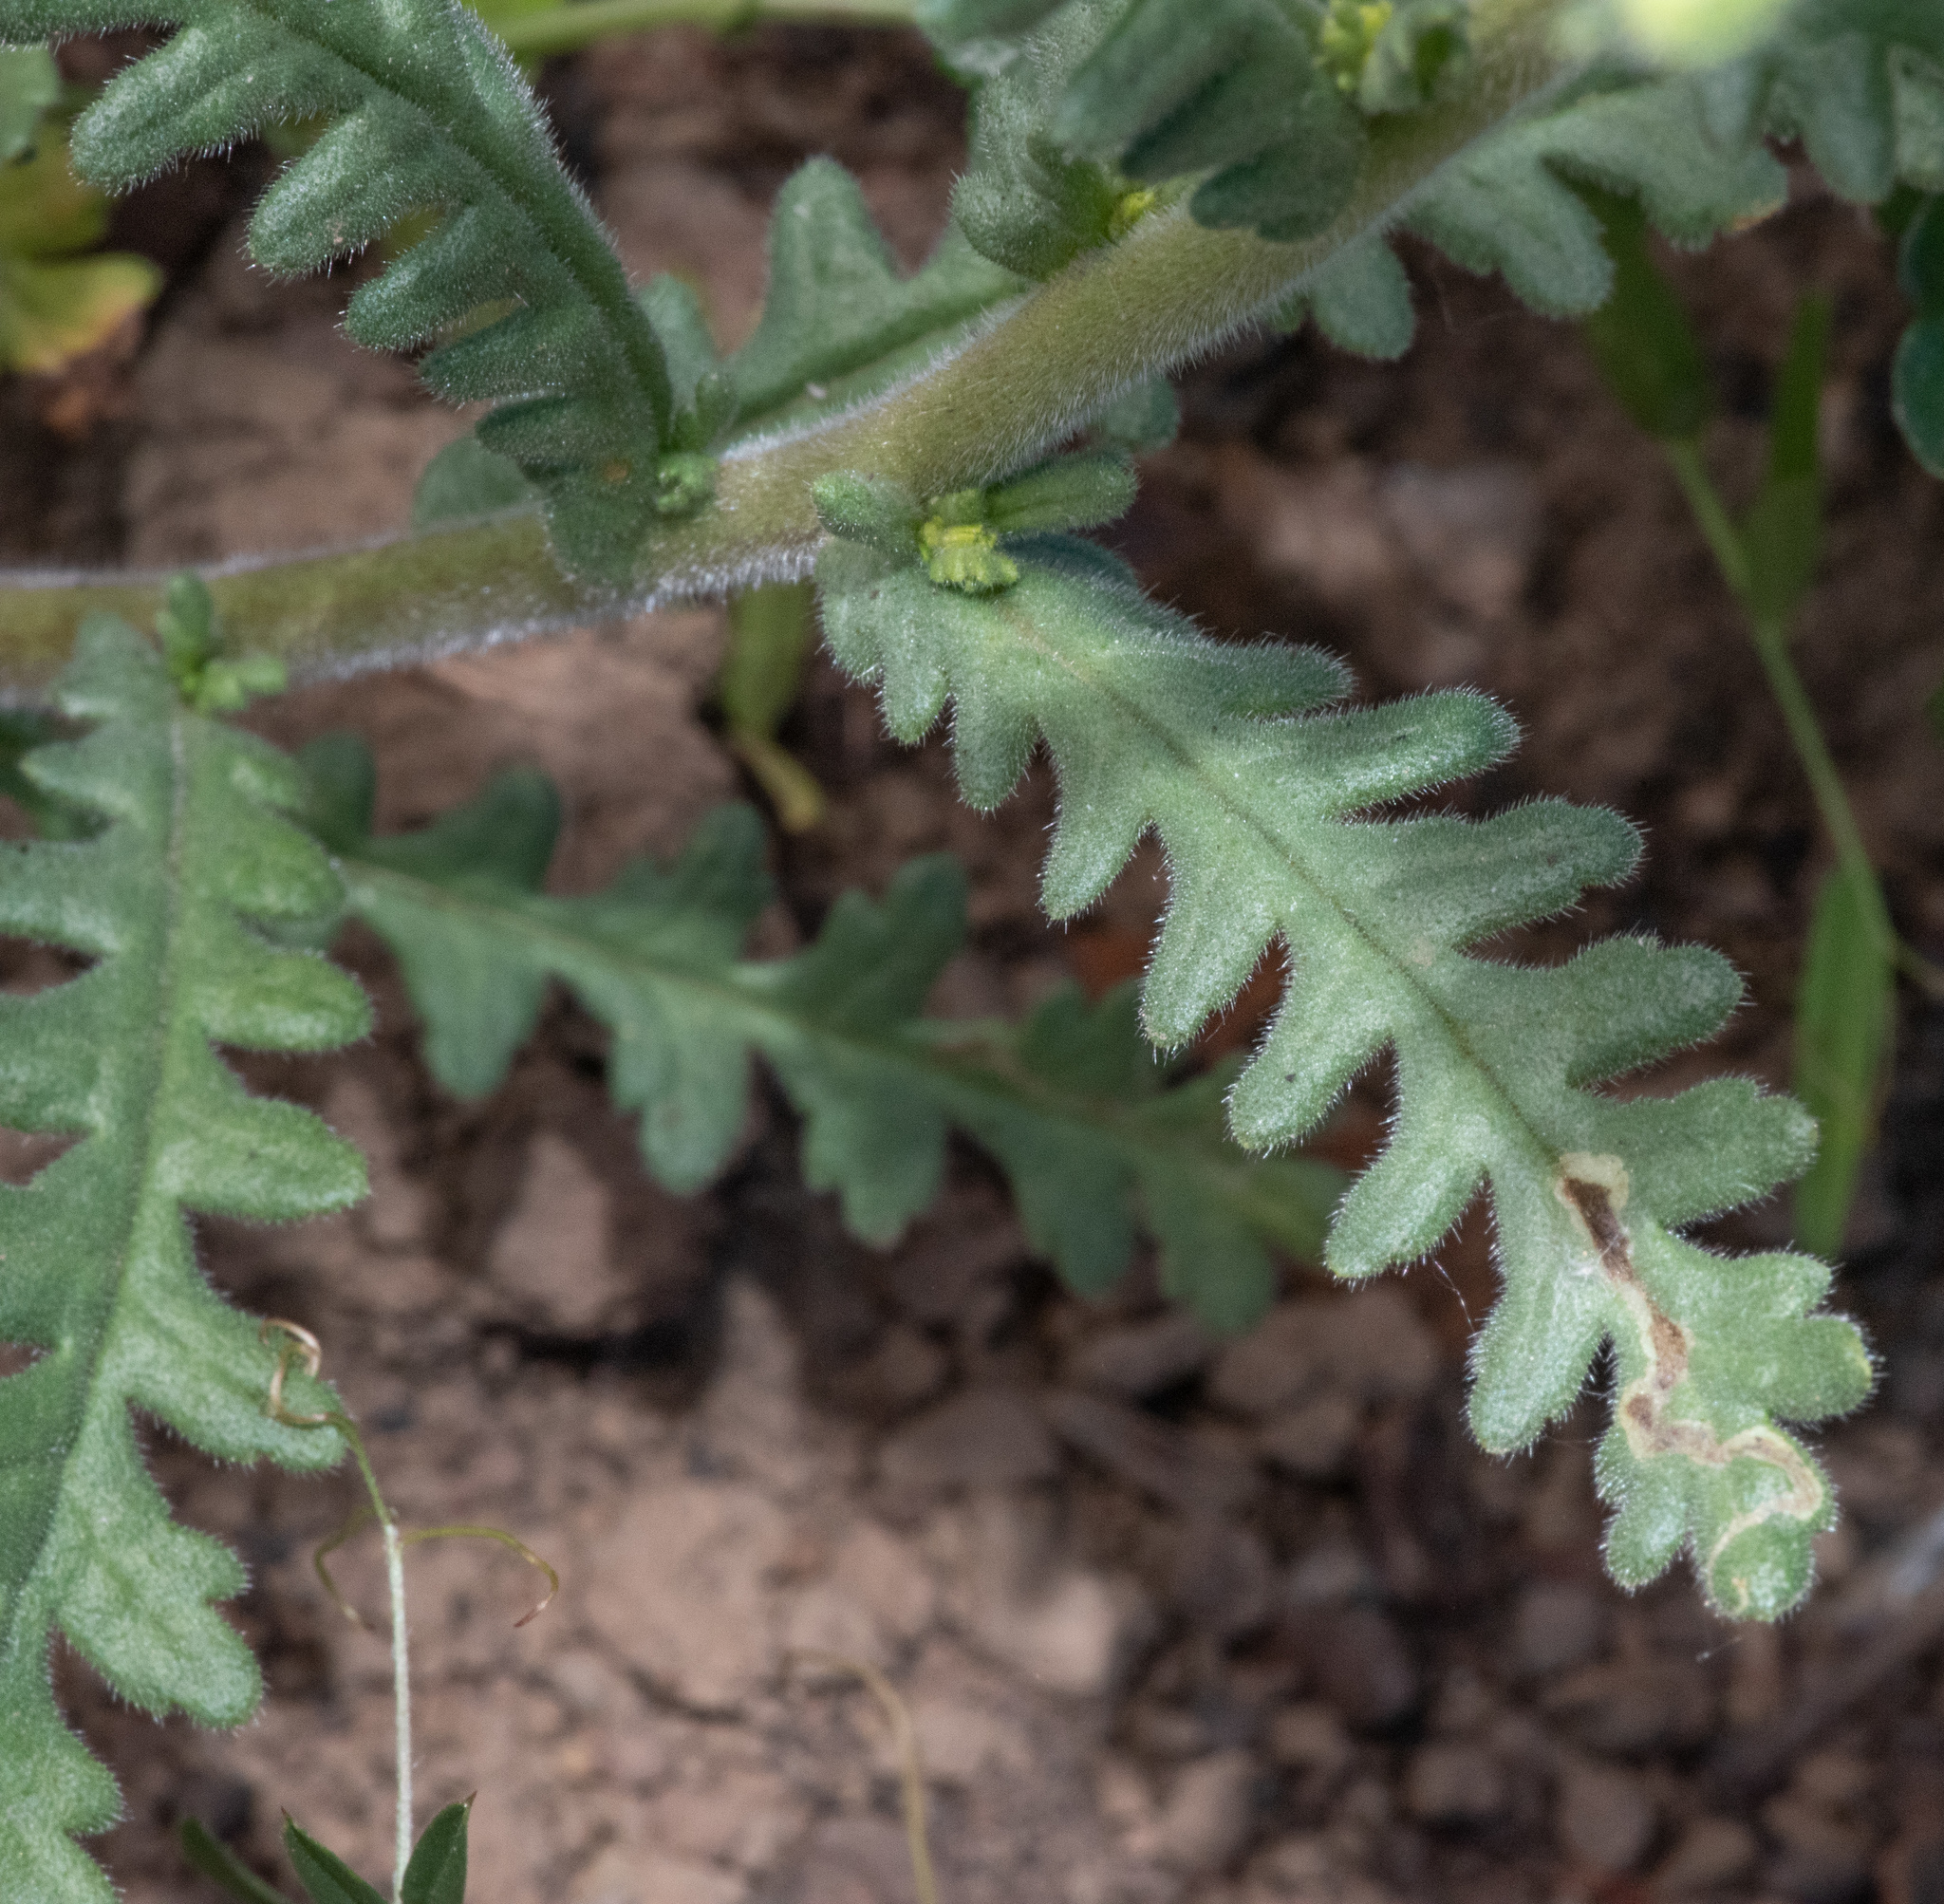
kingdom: Plantae
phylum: Tracheophyta
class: Magnoliopsida
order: Boraginales
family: Hydrophyllaceae
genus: Emmenanthe
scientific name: Emmenanthe penduliflora
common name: Whispering-bells
